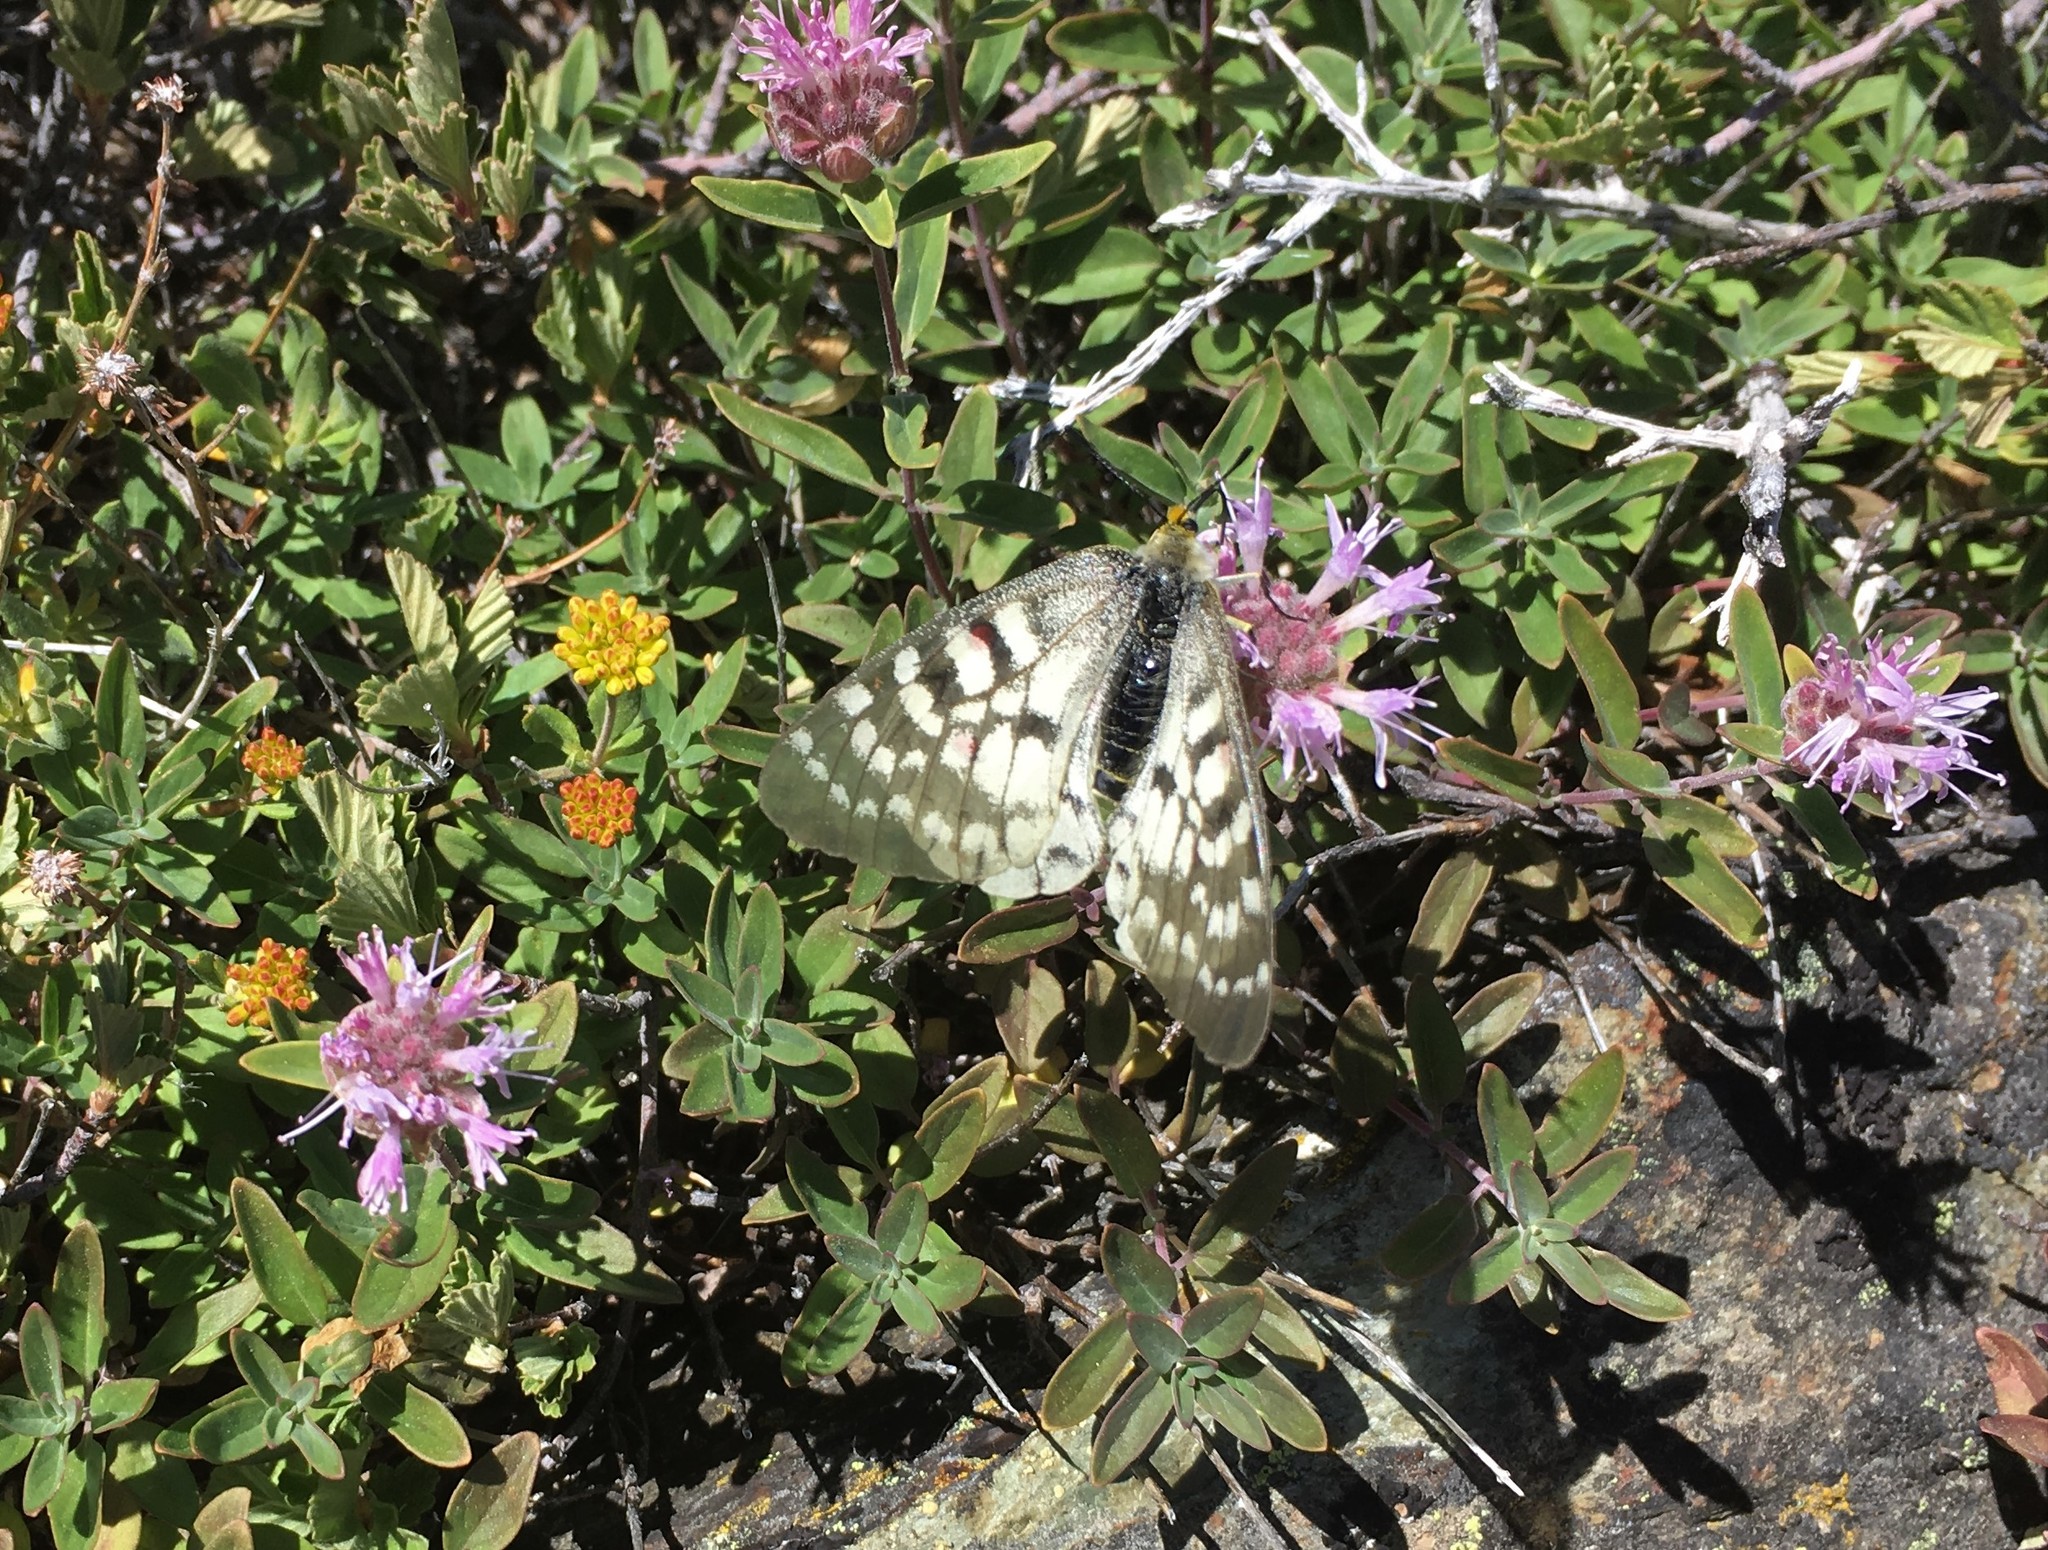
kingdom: Animalia
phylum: Arthropoda
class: Insecta
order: Lepidoptera
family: Papilionidae
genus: Parnassius
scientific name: Parnassius clodius
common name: American apollo
